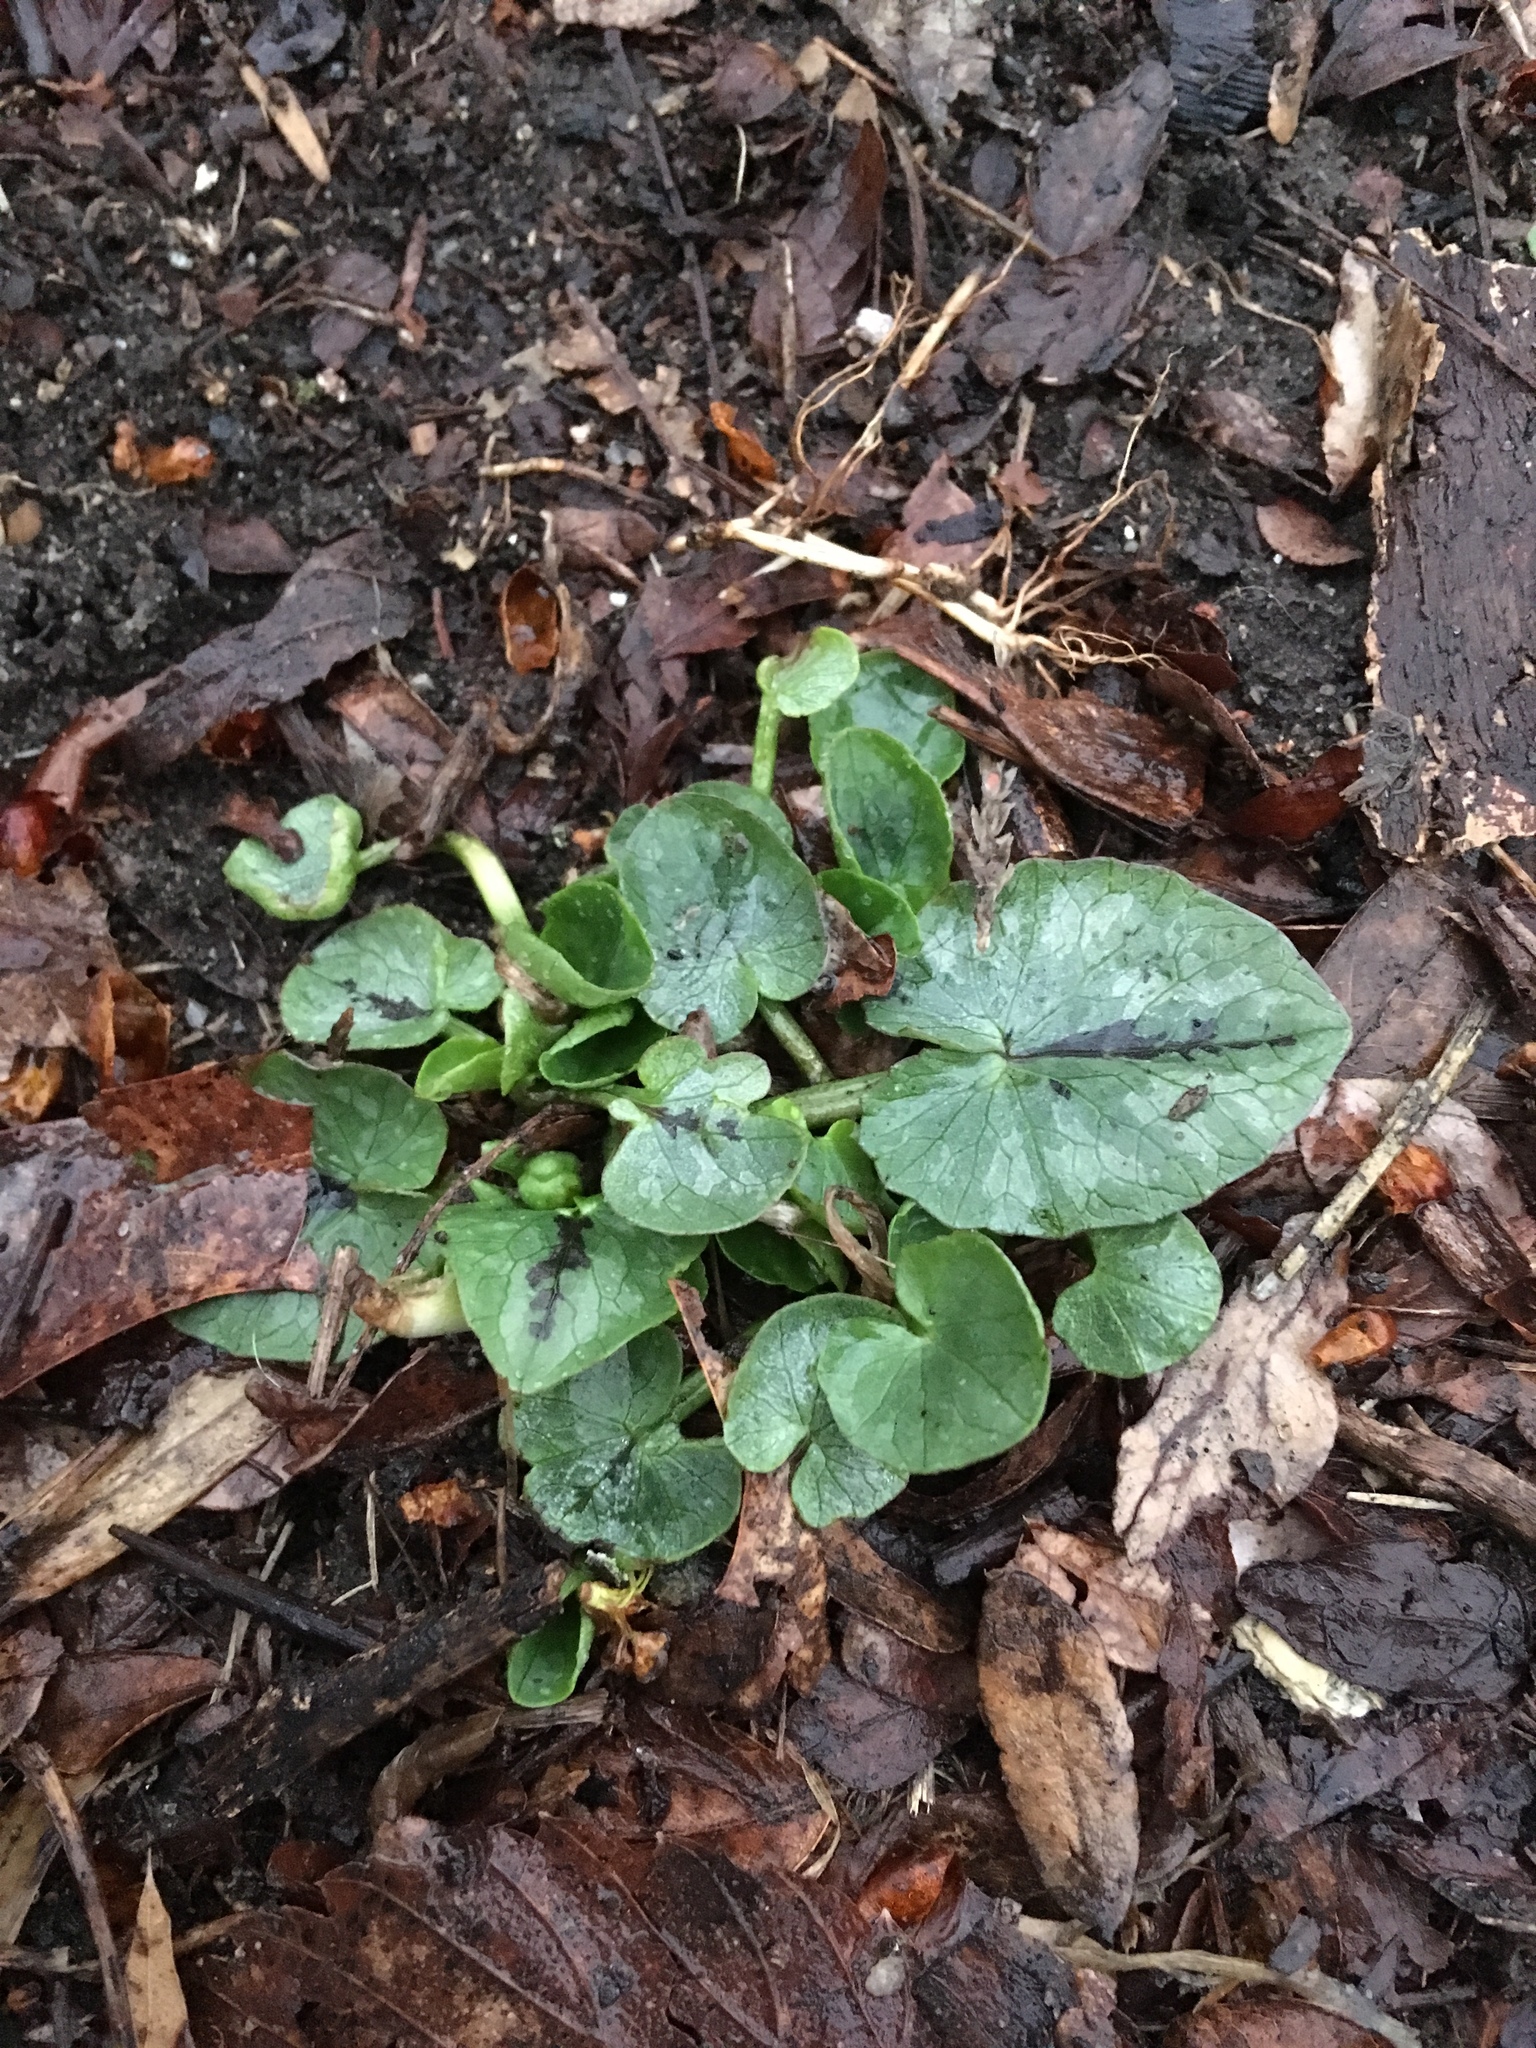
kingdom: Plantae
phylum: Tracheophyta
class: Magnoliopsida
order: Ranunculales
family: Ranunculaceae
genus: Ficaria
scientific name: Ficaria verna
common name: Lesser celandine
